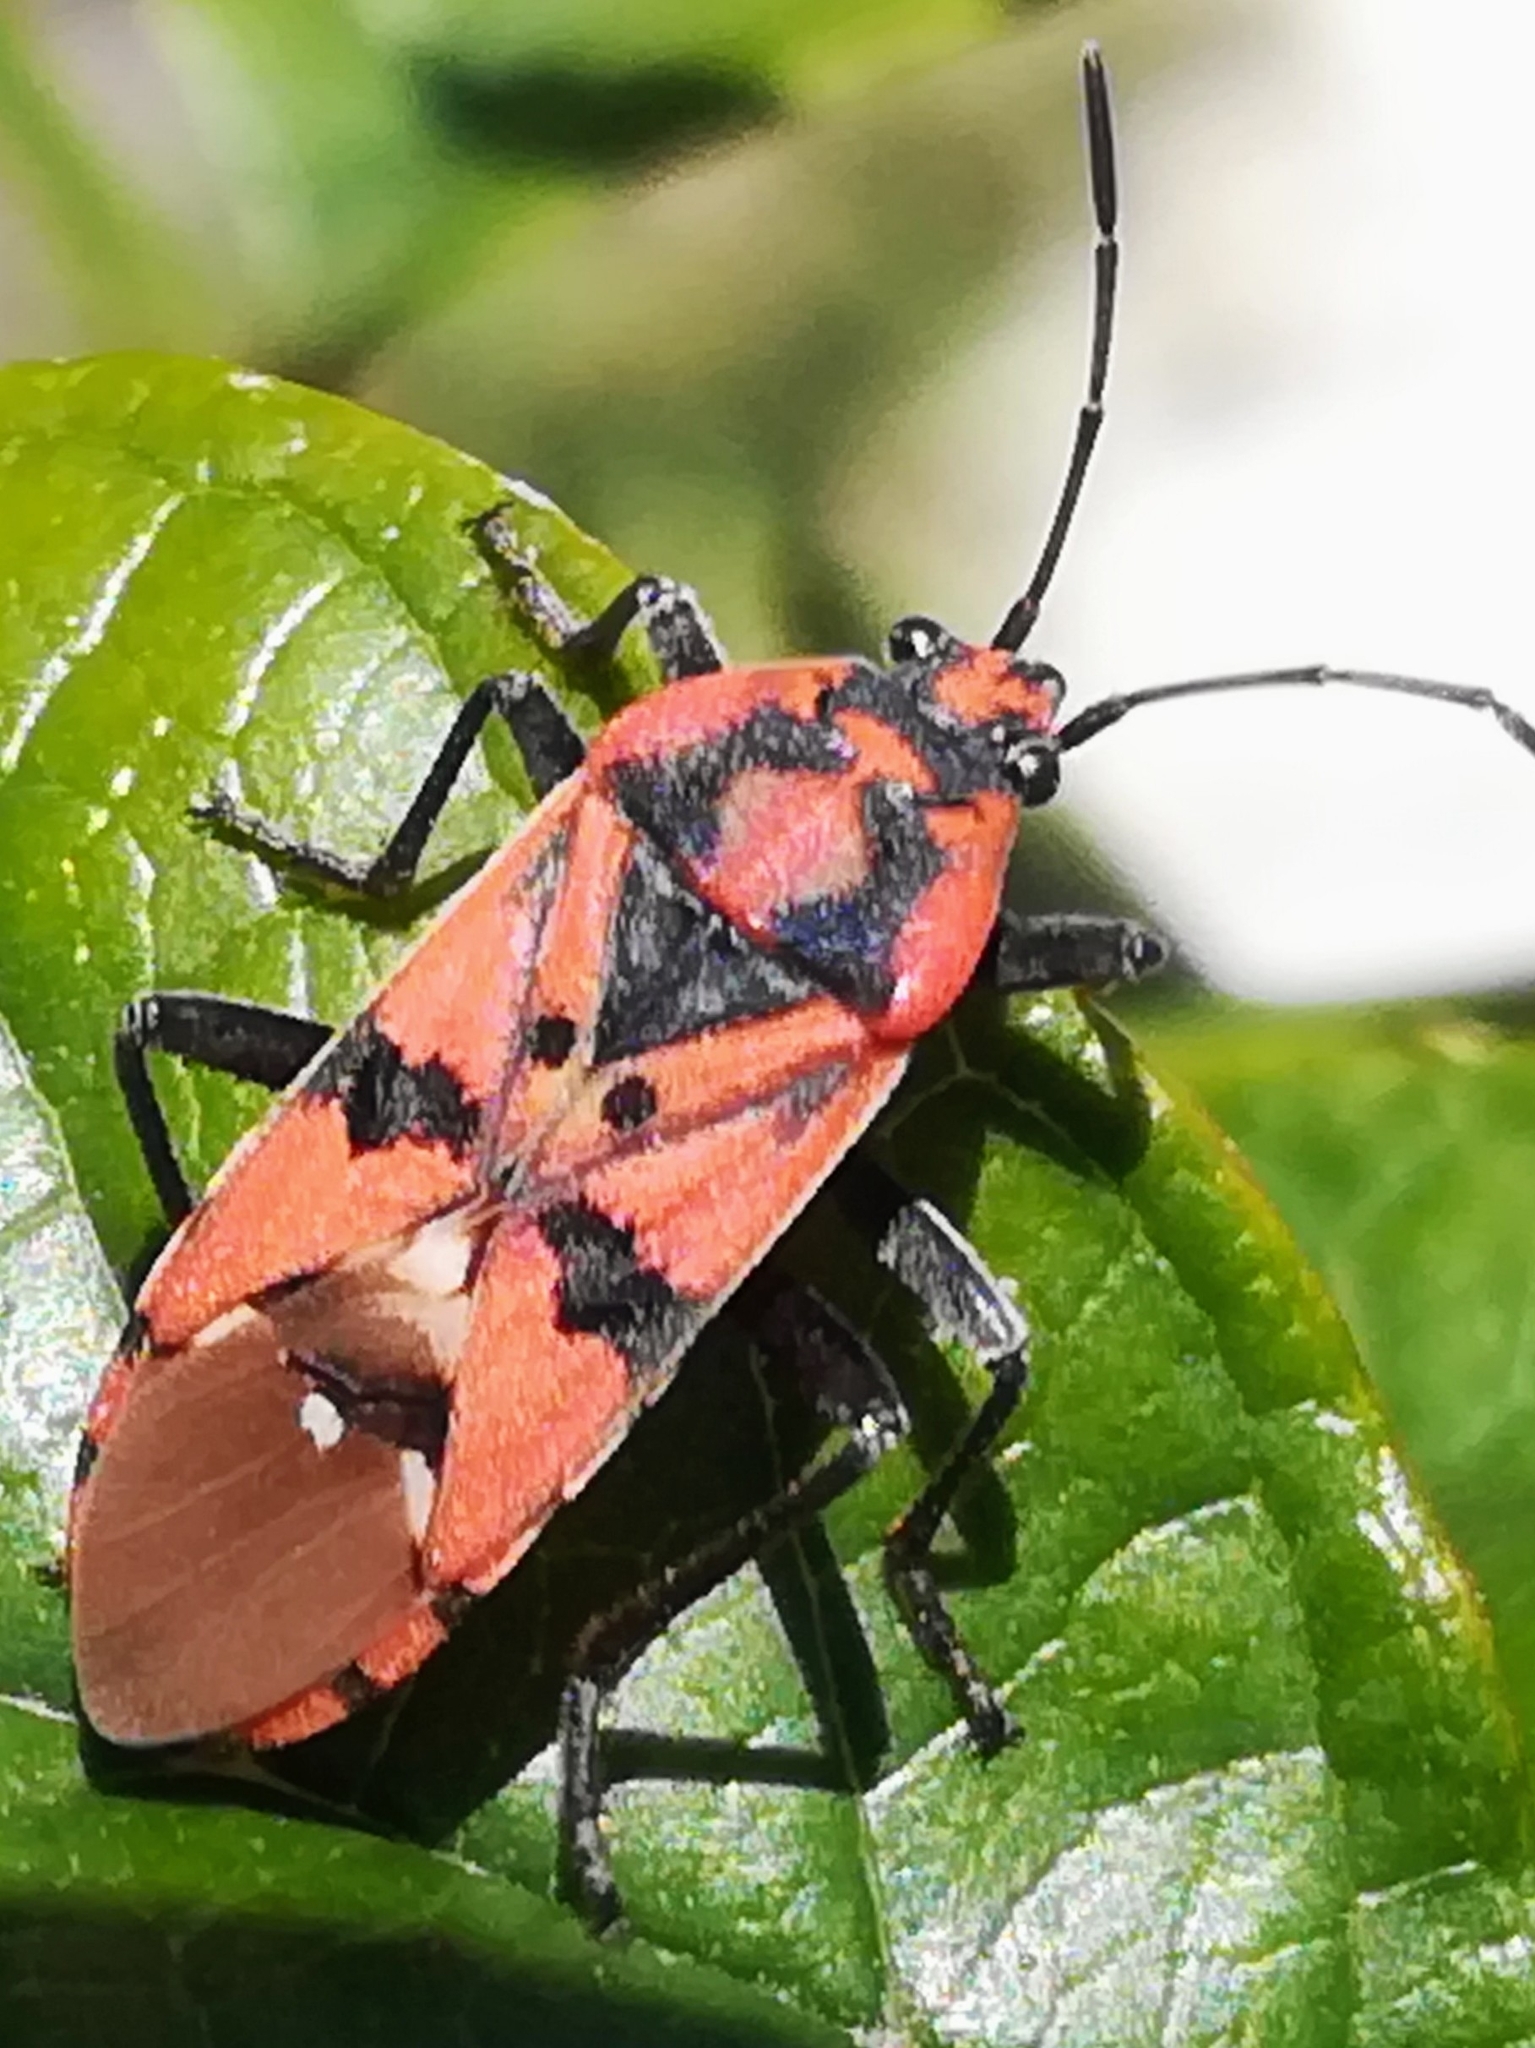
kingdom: Animalia
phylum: Arthropoda
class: Insecta
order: Hemiptera
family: Lygaeidae
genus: Spilostethus
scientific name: Spilostethus pandurus
